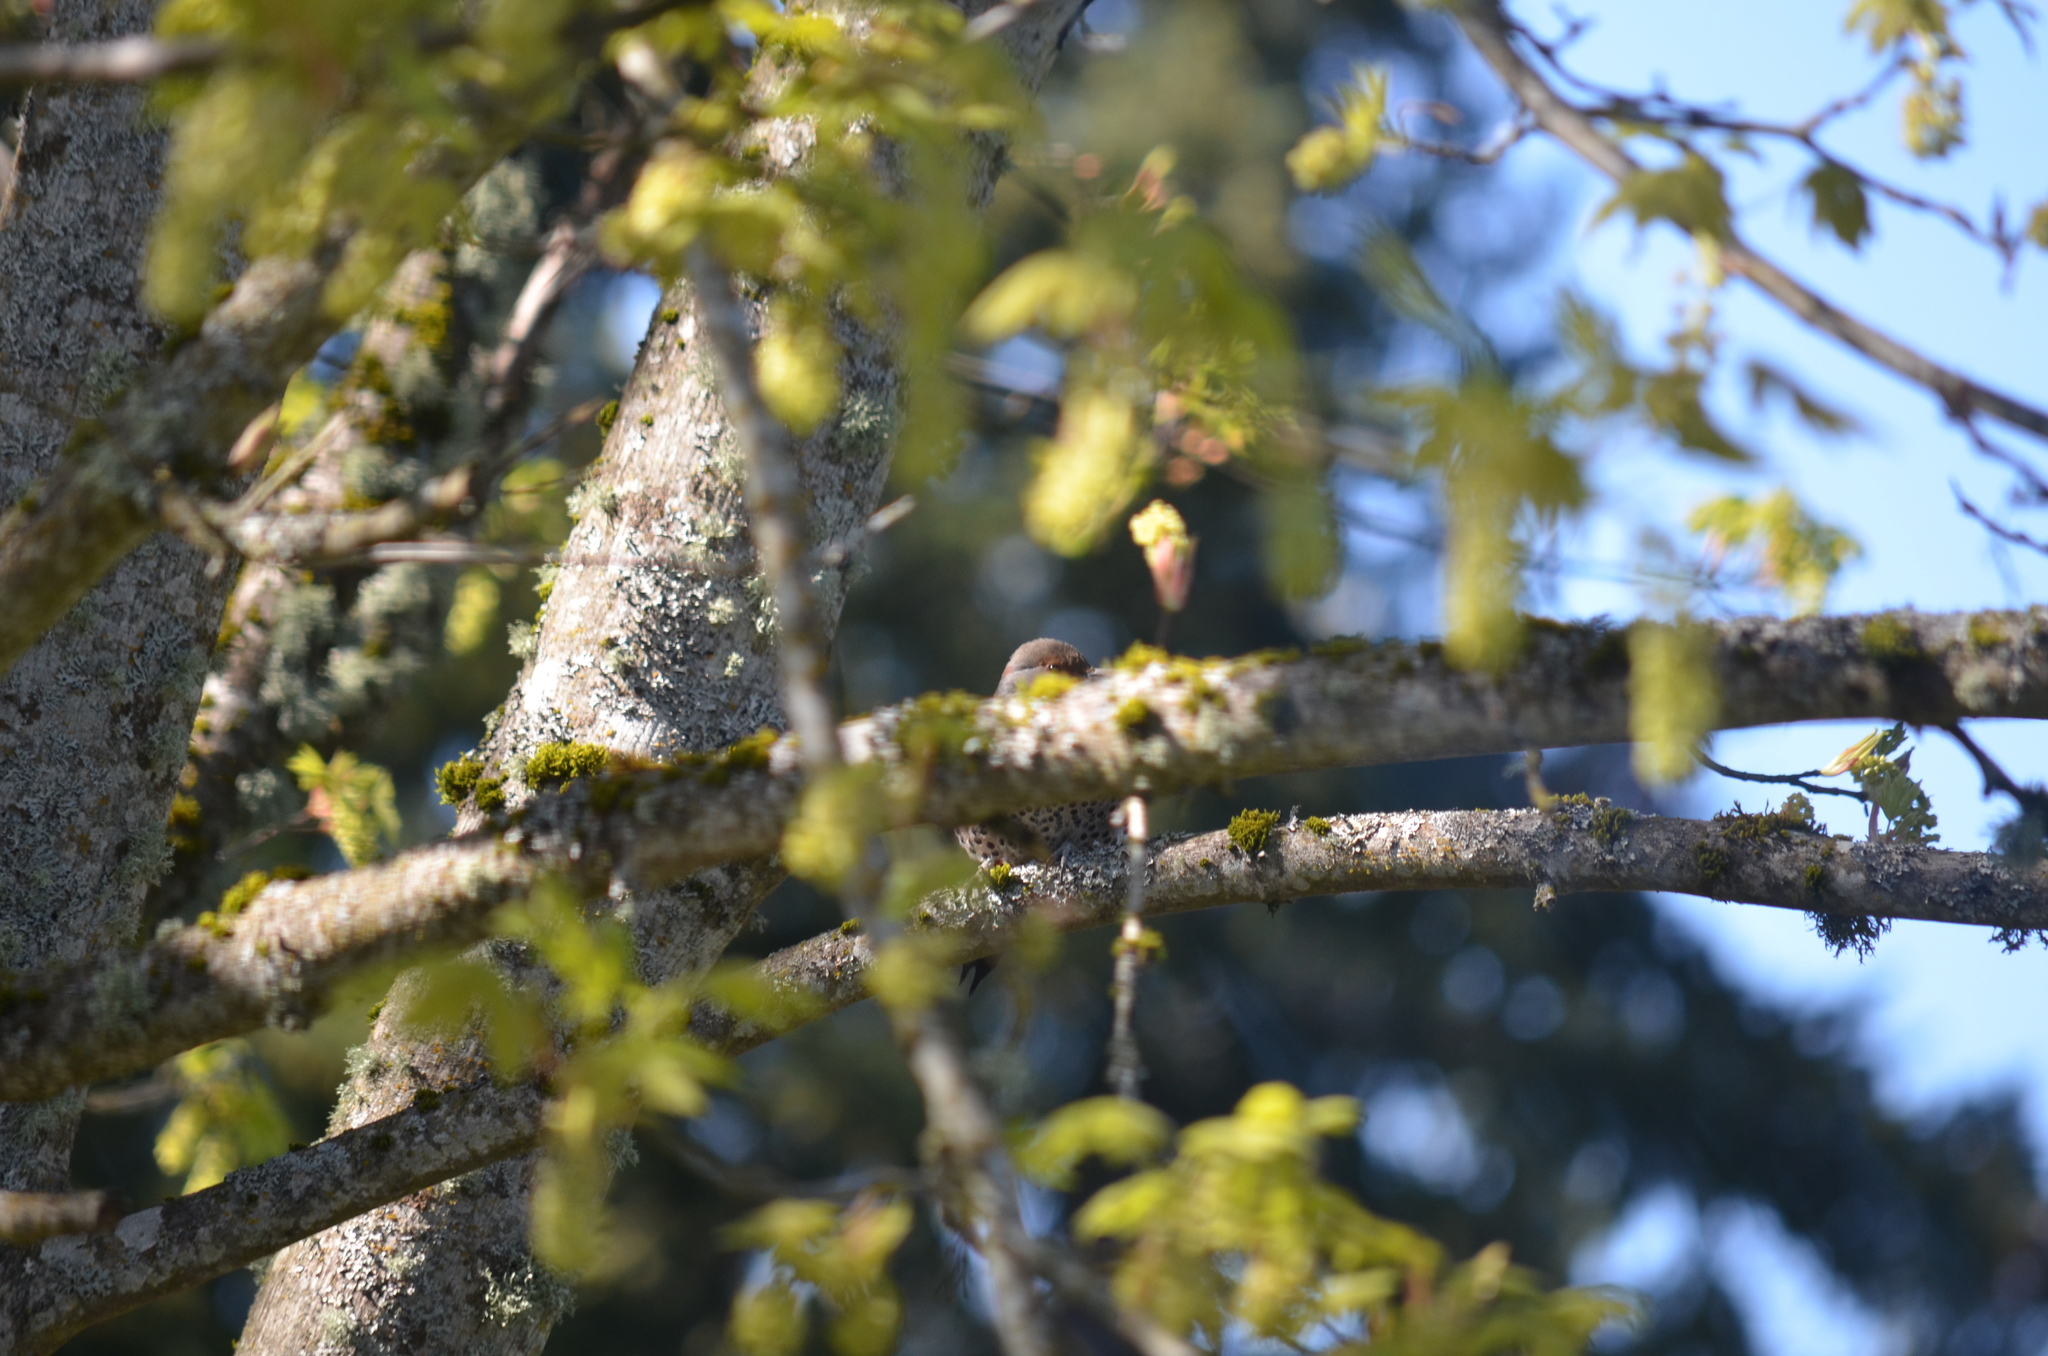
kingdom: Animalia
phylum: Chordata
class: Aves
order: Piciformes
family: Picidae
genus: Colaptes
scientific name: Colaptes auratus
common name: Northern flicker
